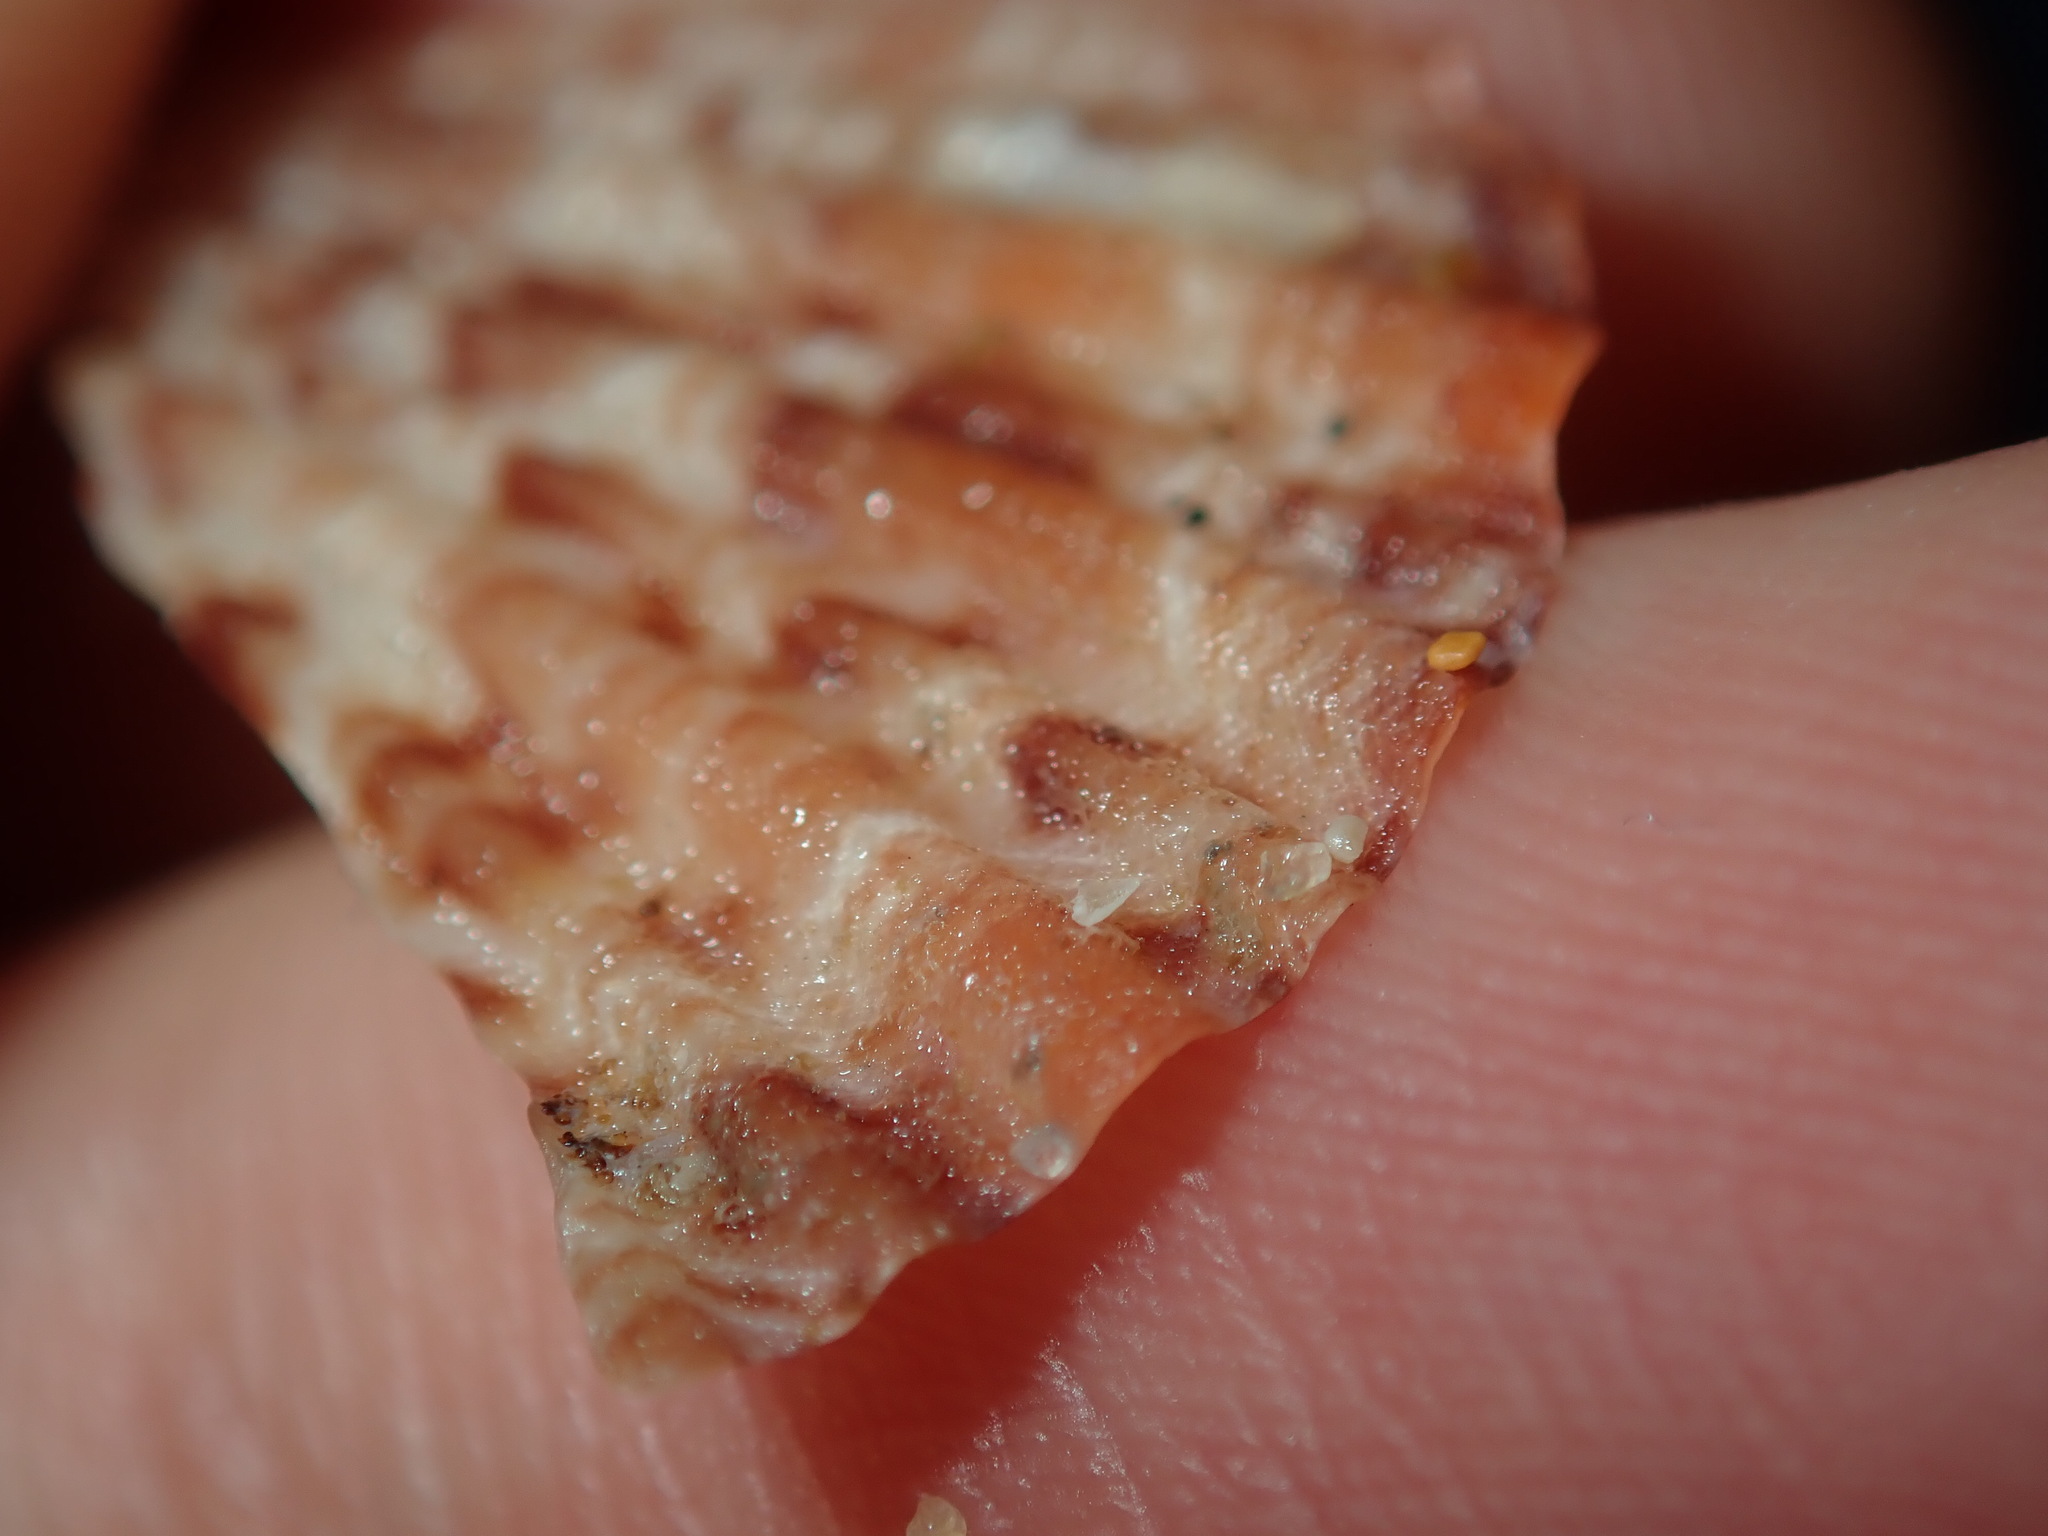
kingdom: Animalia
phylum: Mollusca
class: Bivalvia
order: Pectinida
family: Pectinidae
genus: Semipallium
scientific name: Semipallium aktinos
